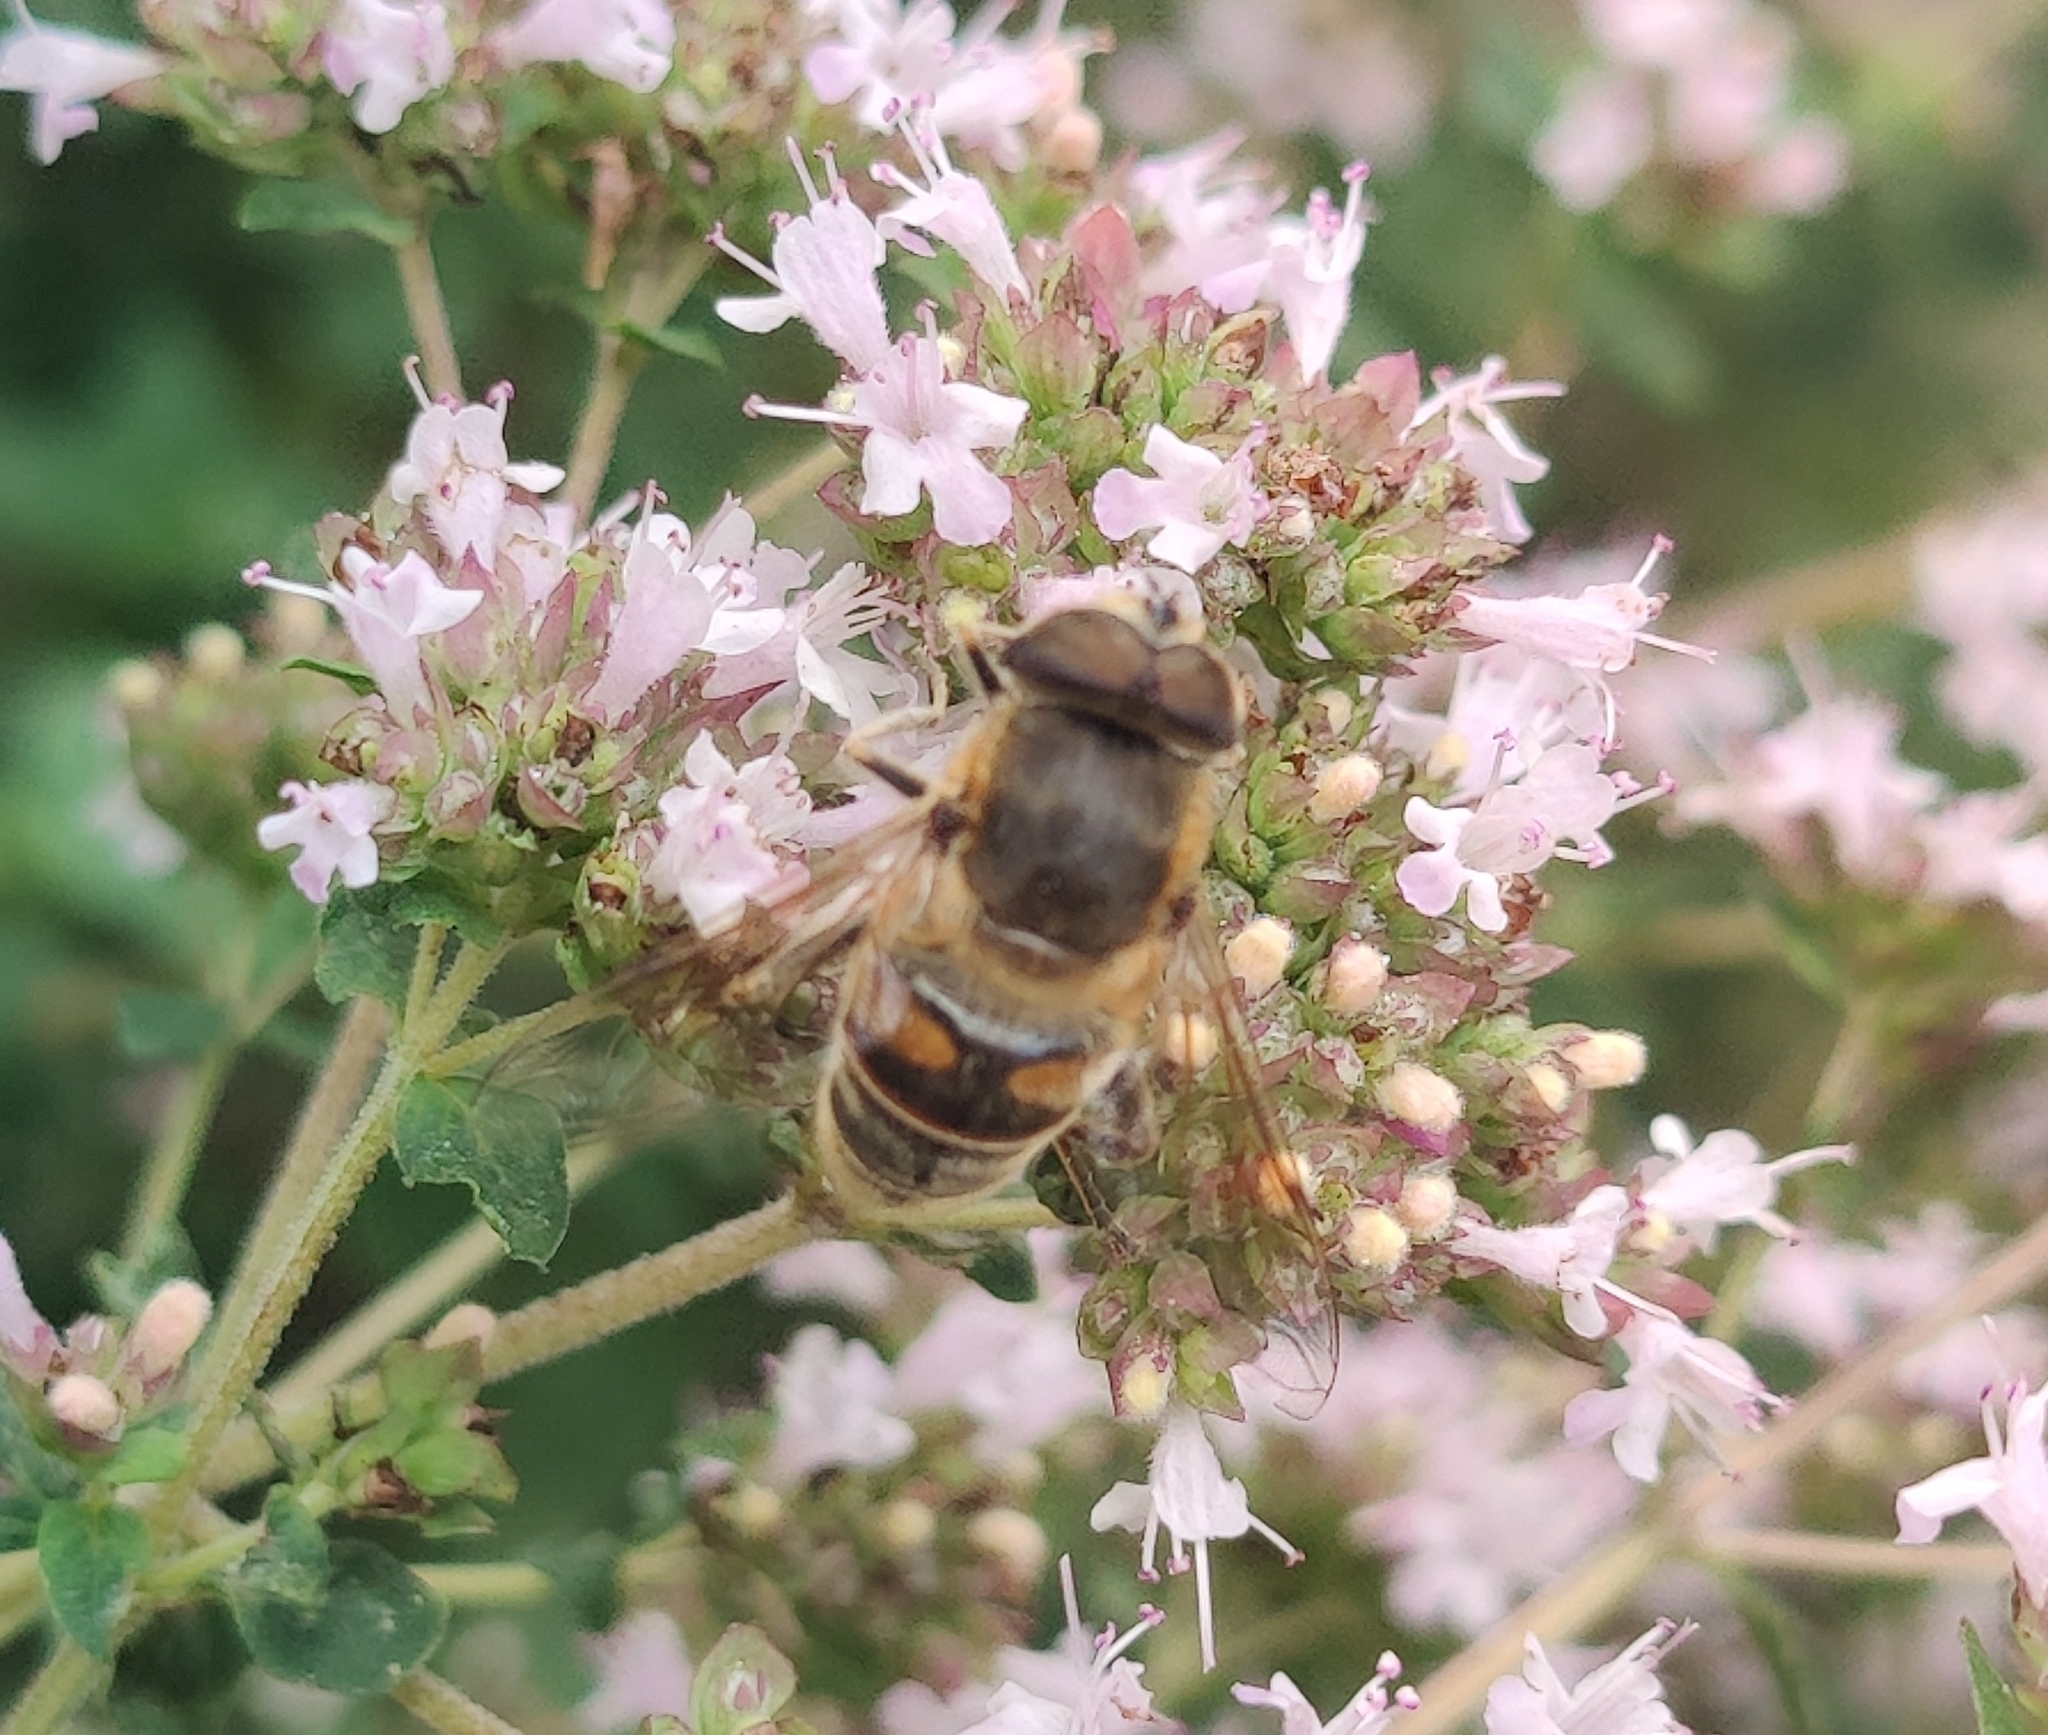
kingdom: Animalia
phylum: Arthropoda
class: Insecta
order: Diptera
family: Syrphidae
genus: Eristalis
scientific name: Eristalis tenax
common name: Drone fly
